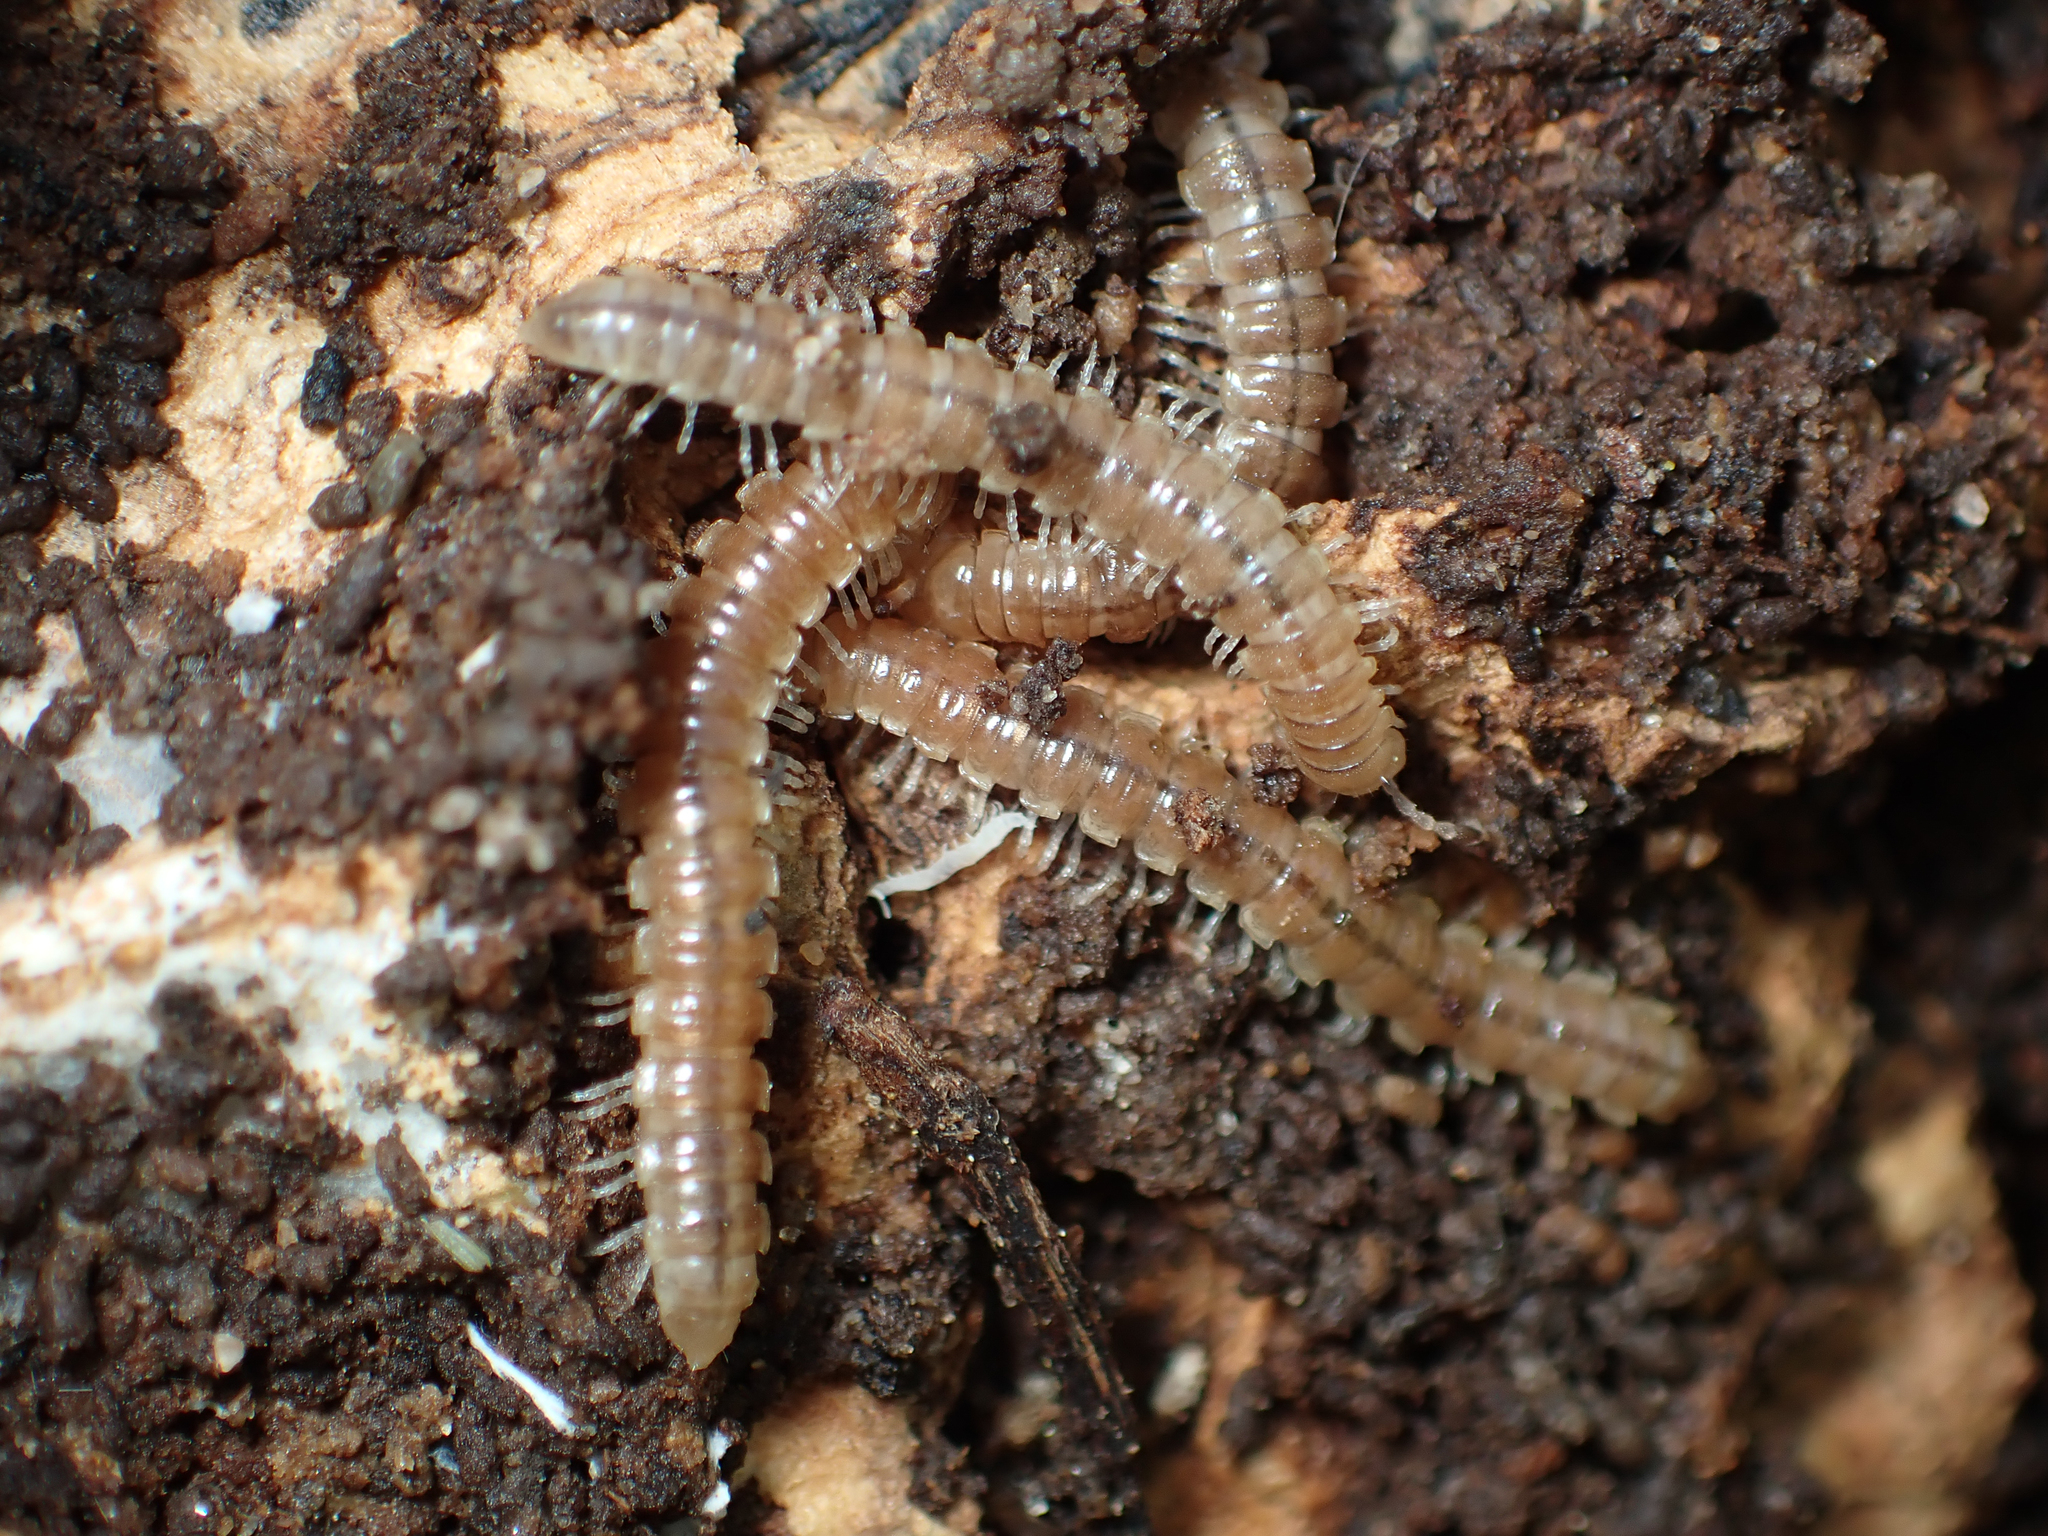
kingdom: Animalia
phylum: Arthropoda
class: Diplopoda
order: Polydesmida
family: Paradoxosomatidae
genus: Oxidus
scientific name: Oxidus gracilis
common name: Greenhouse millipede
